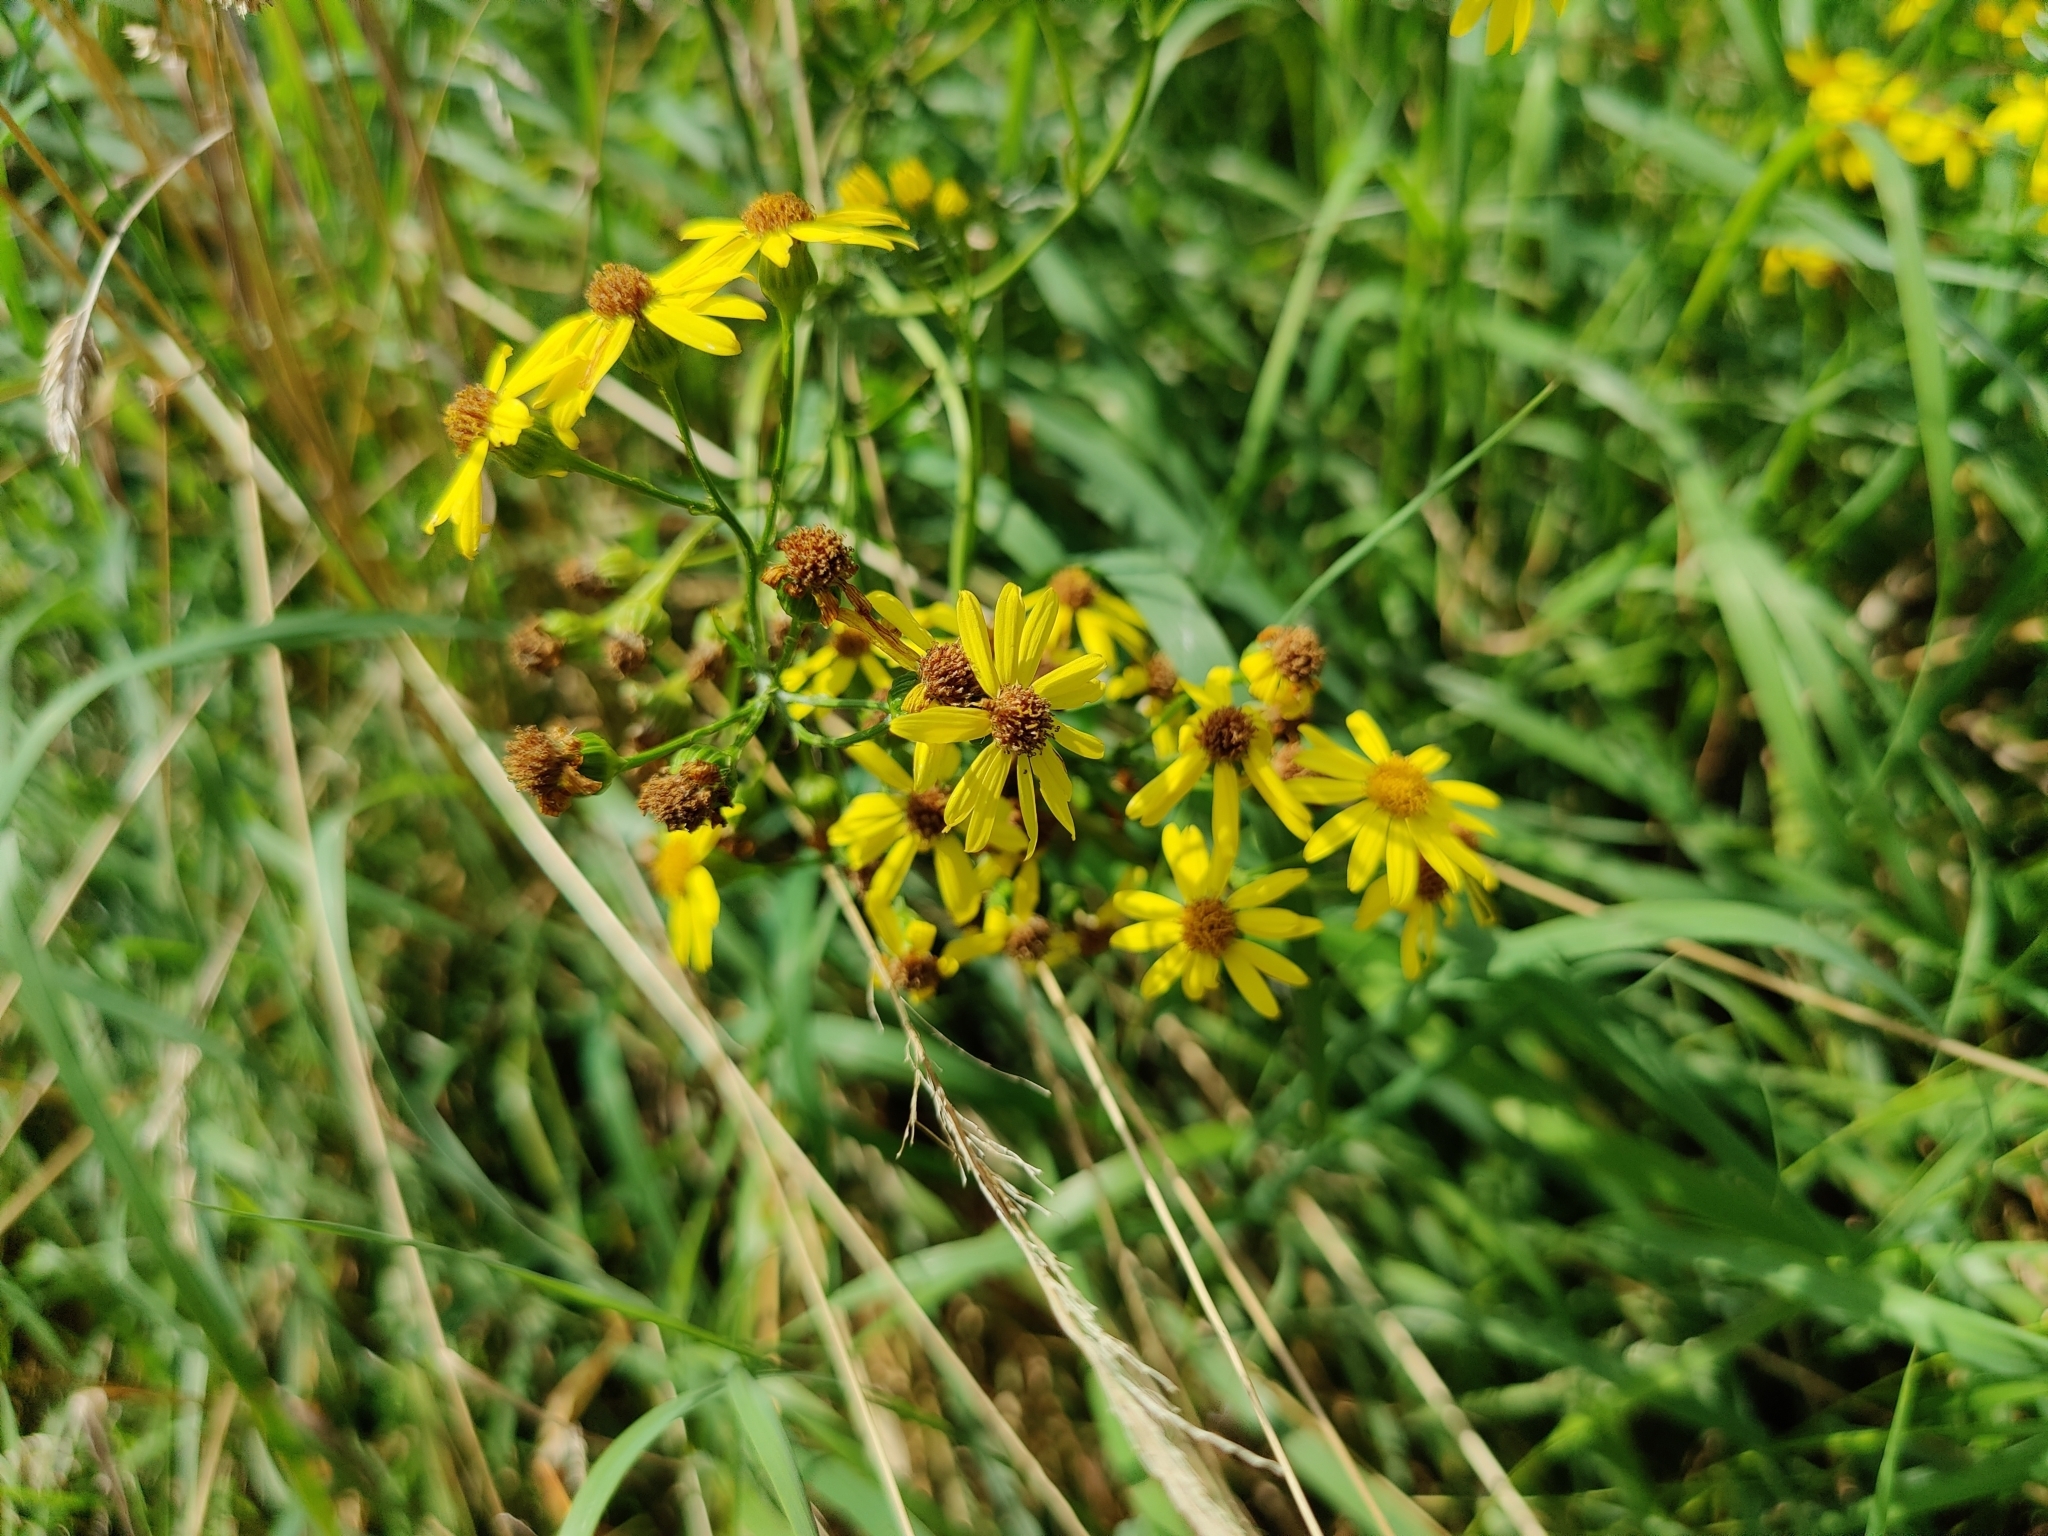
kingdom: Plantae
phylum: Tracheophyta
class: Magnoliopsida
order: Asterales
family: Asteraceae
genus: Jacobaea
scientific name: Jacobaea vulgaris
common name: Stinking willie
